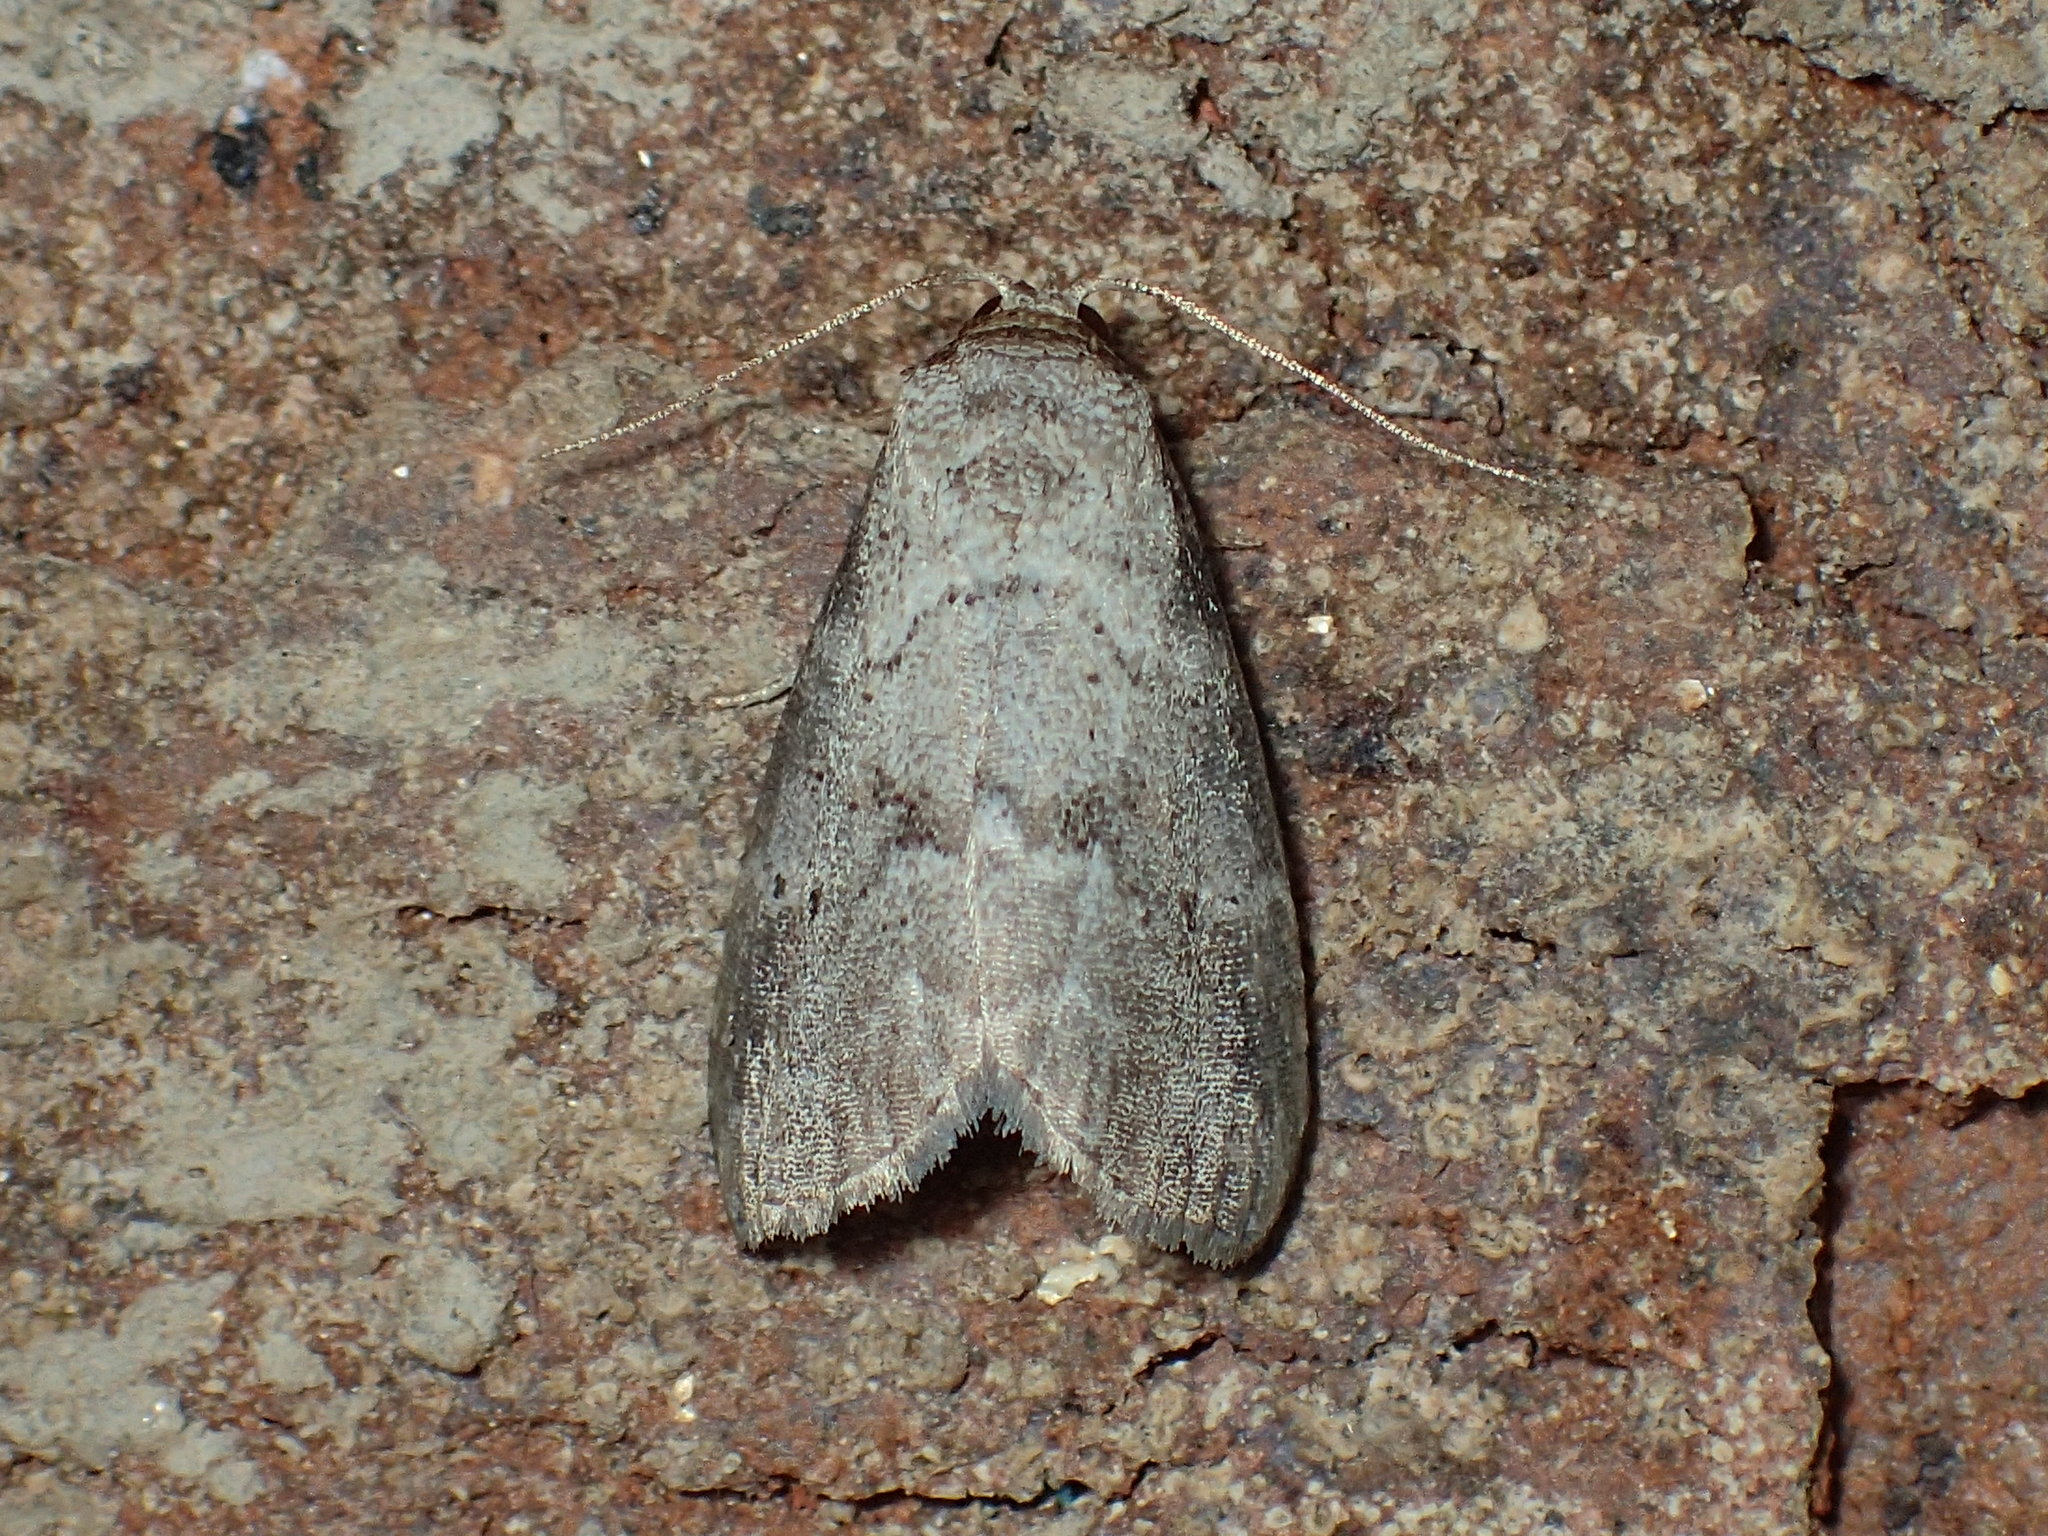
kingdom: Animalia
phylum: Arthropoda
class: Insecta
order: Lepidoptera
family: Erebidae
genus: Hyperstrotia
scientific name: Hyperstrotia pervertens
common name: Dotted graylet
